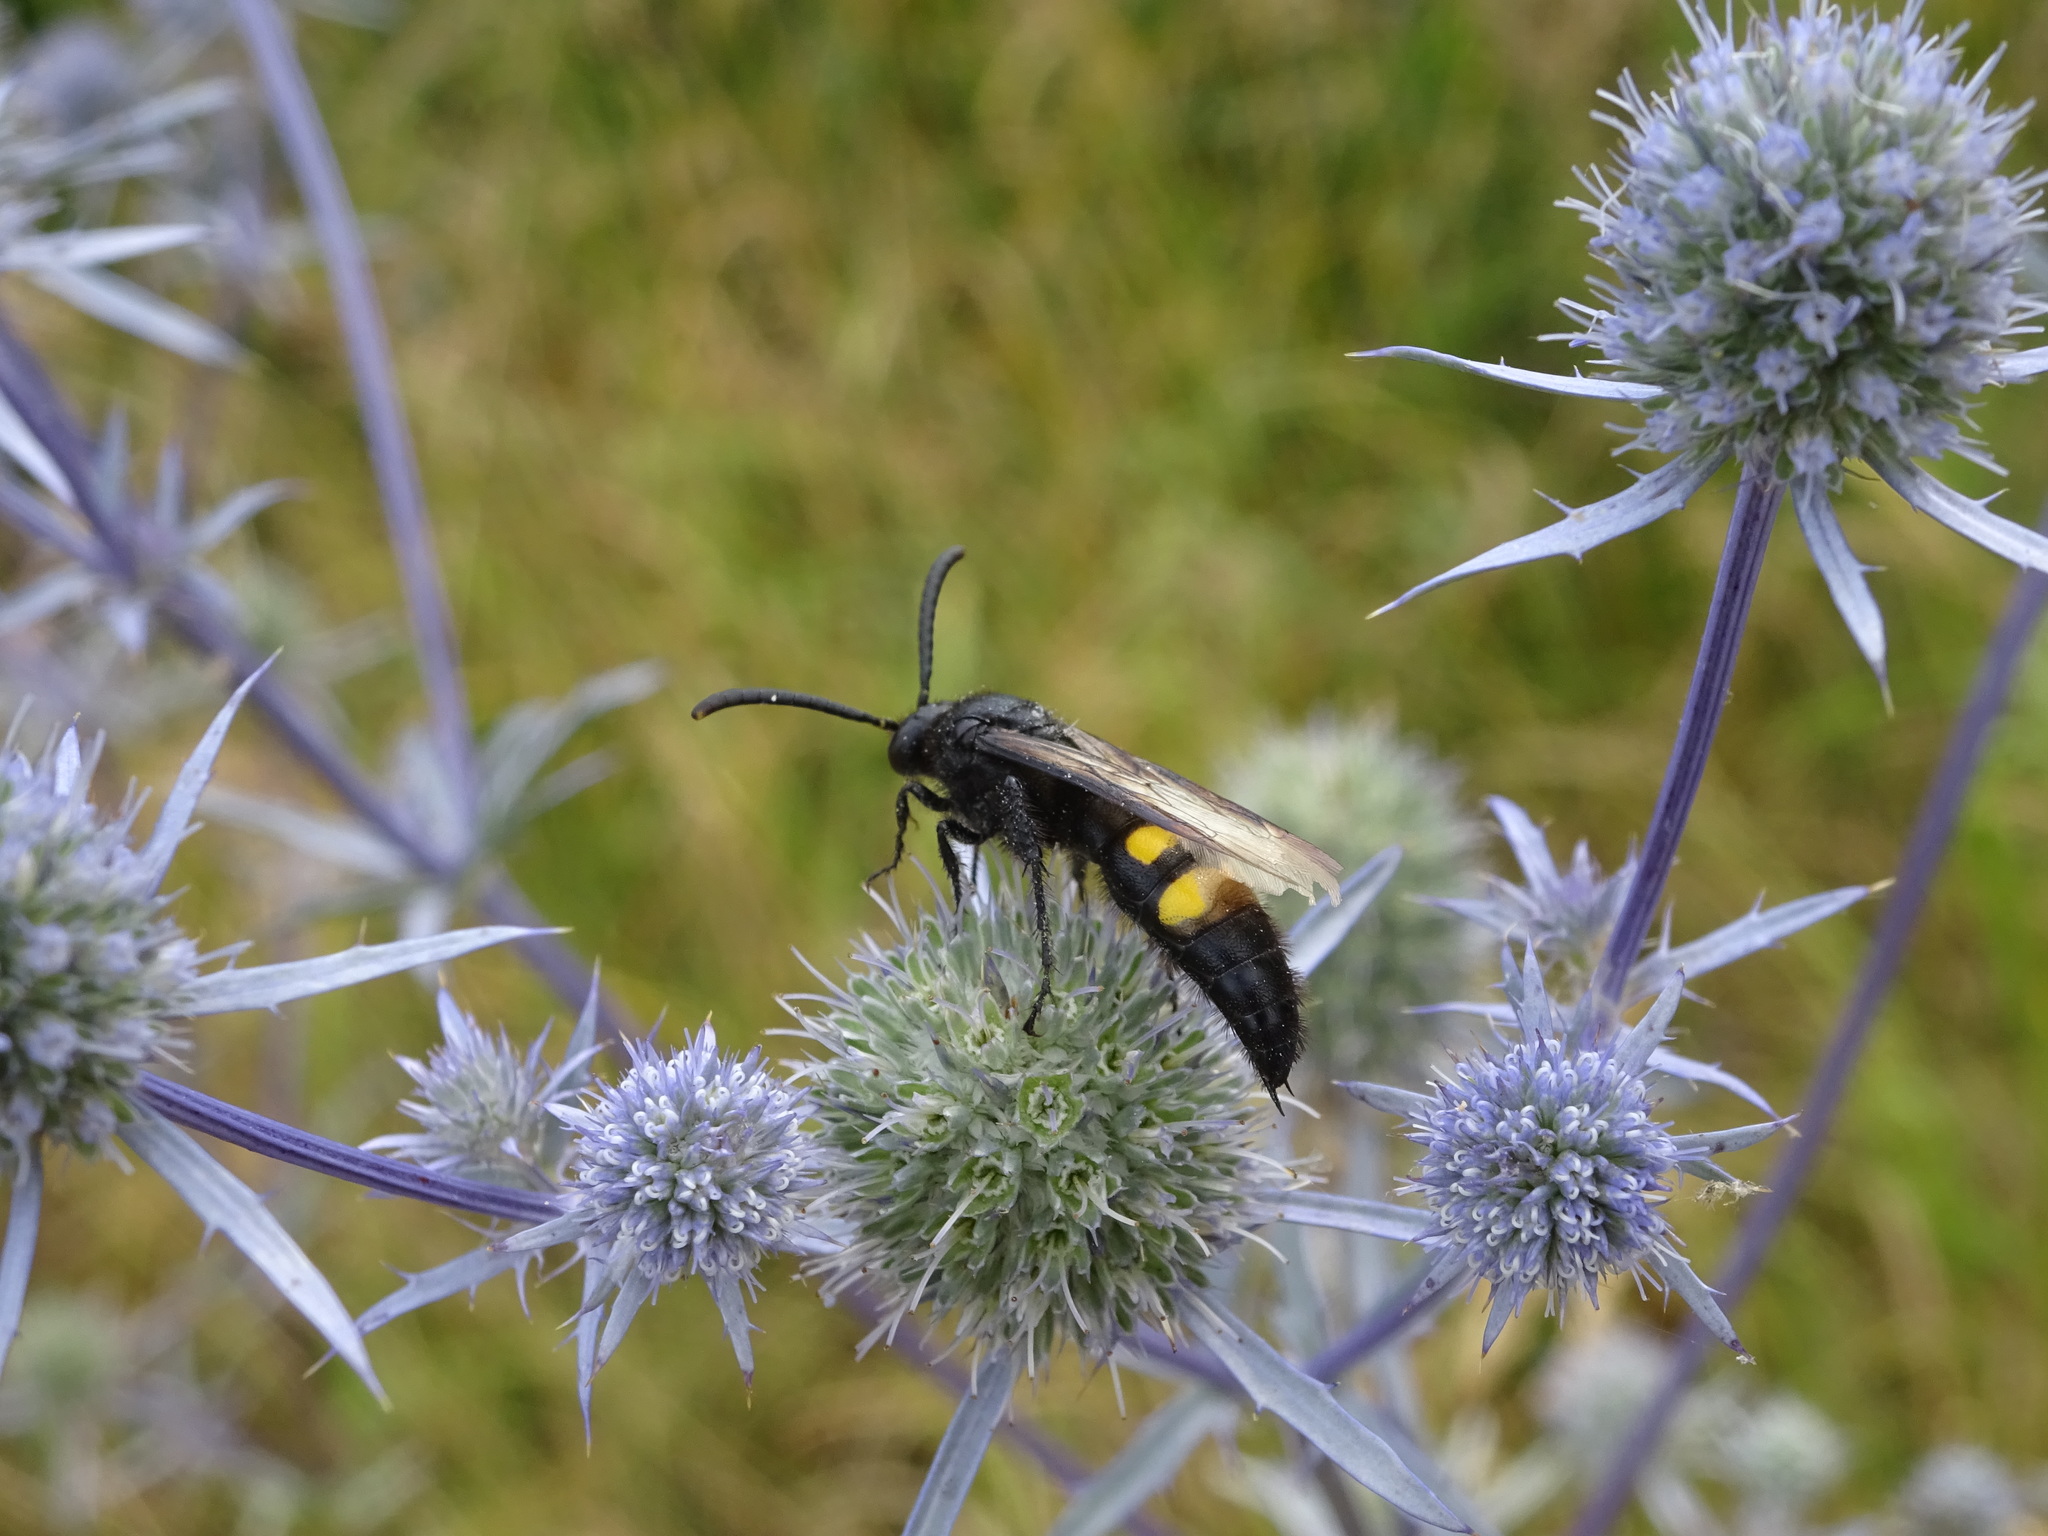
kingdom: Animalia
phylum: Arthropoda
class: Insecta
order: Hymenoptera
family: Scoliidae
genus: Scolia
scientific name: Scolia hirta
